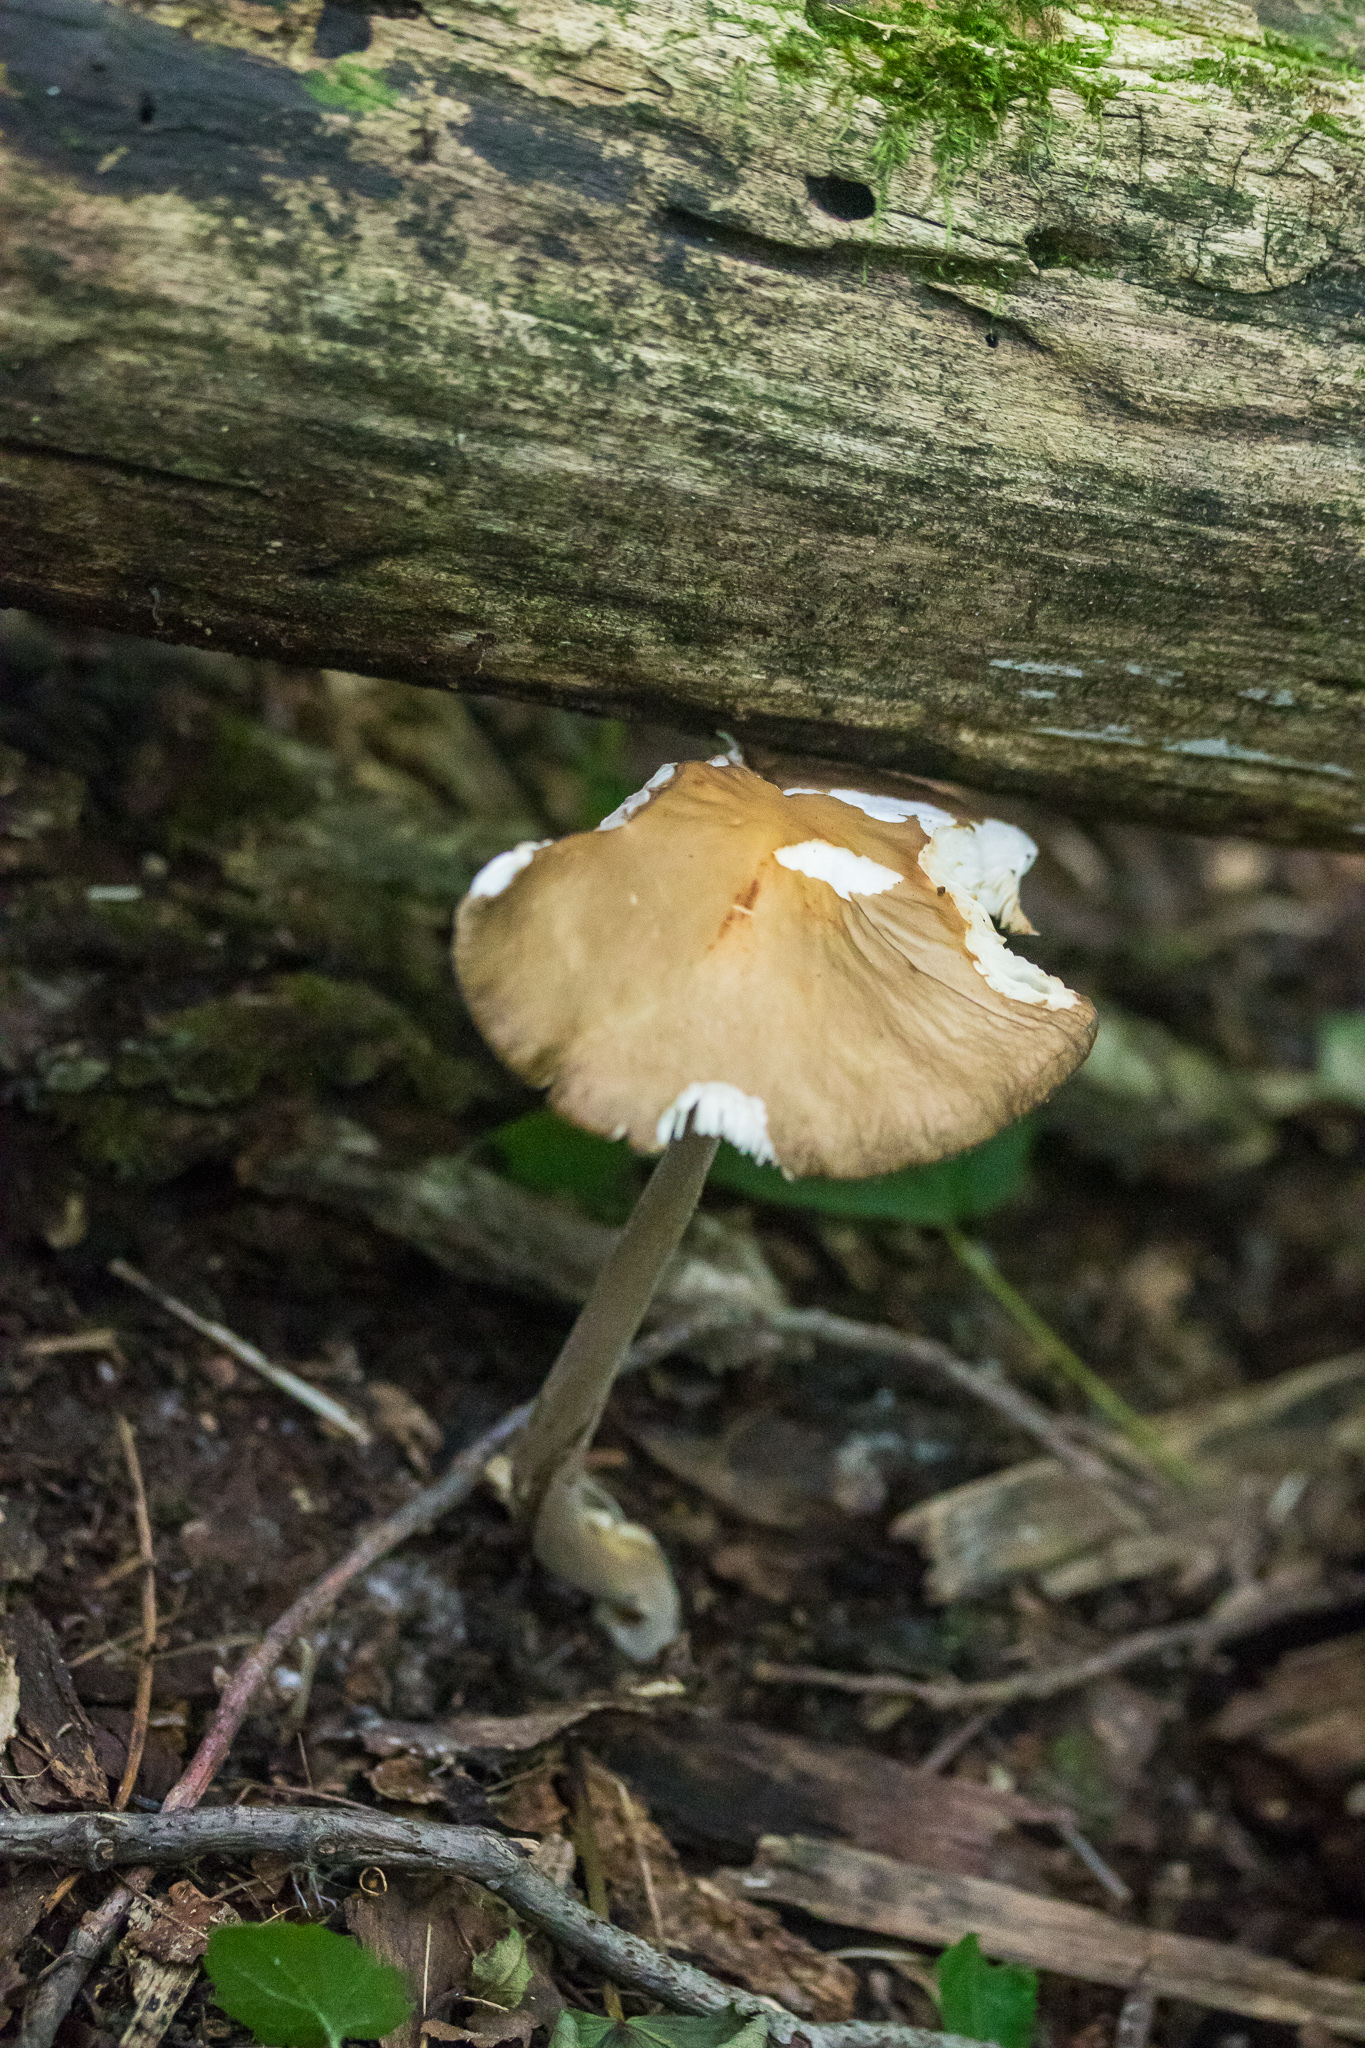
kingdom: Fungi
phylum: Basidiomycota
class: Agaricomycetes
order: Agaricales
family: Physalacriaceae
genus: Hymenopellis
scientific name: Hymenopellis radicata
